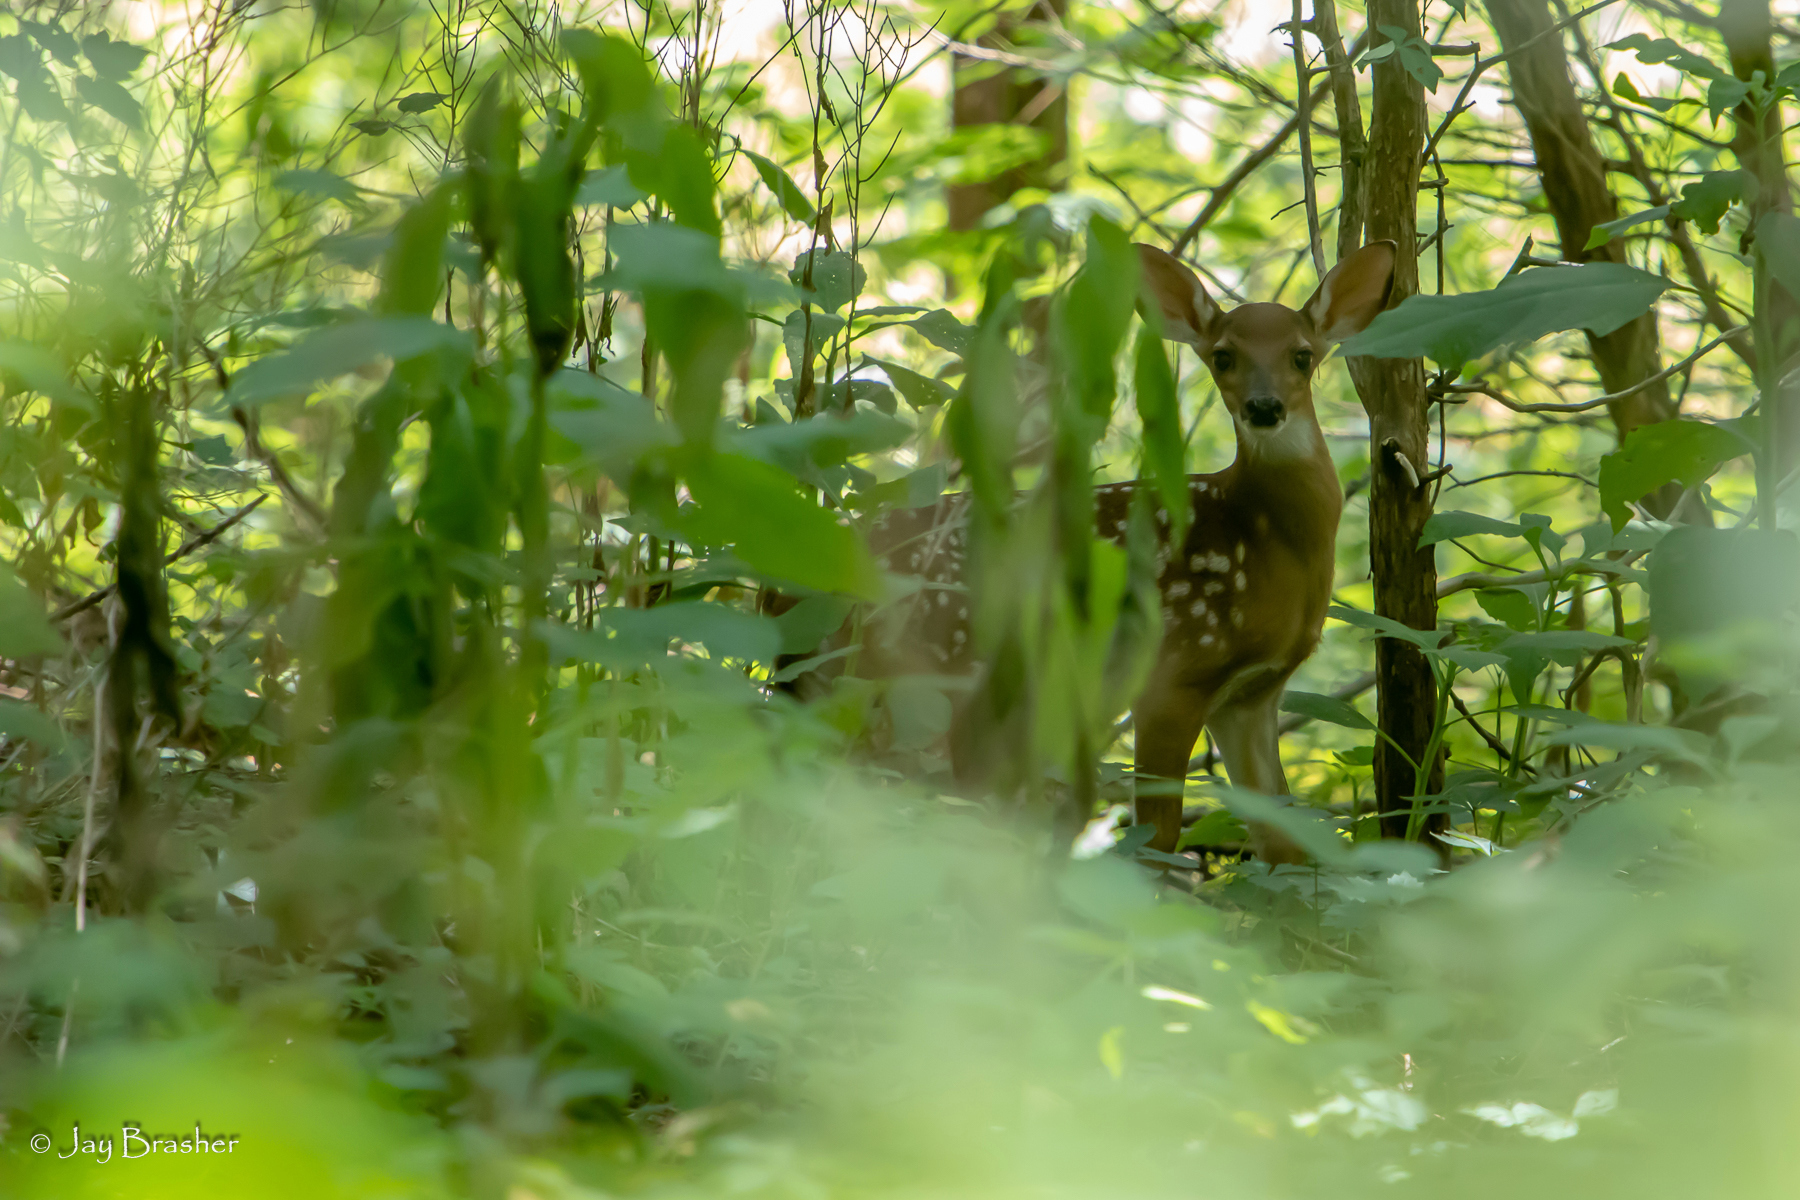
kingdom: Animalia
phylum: Chordata
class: Mammalia
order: Artiodactyla
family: Cervidae
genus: Odocoileus
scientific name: Odocoileus virginianus
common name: White-tailed deer
